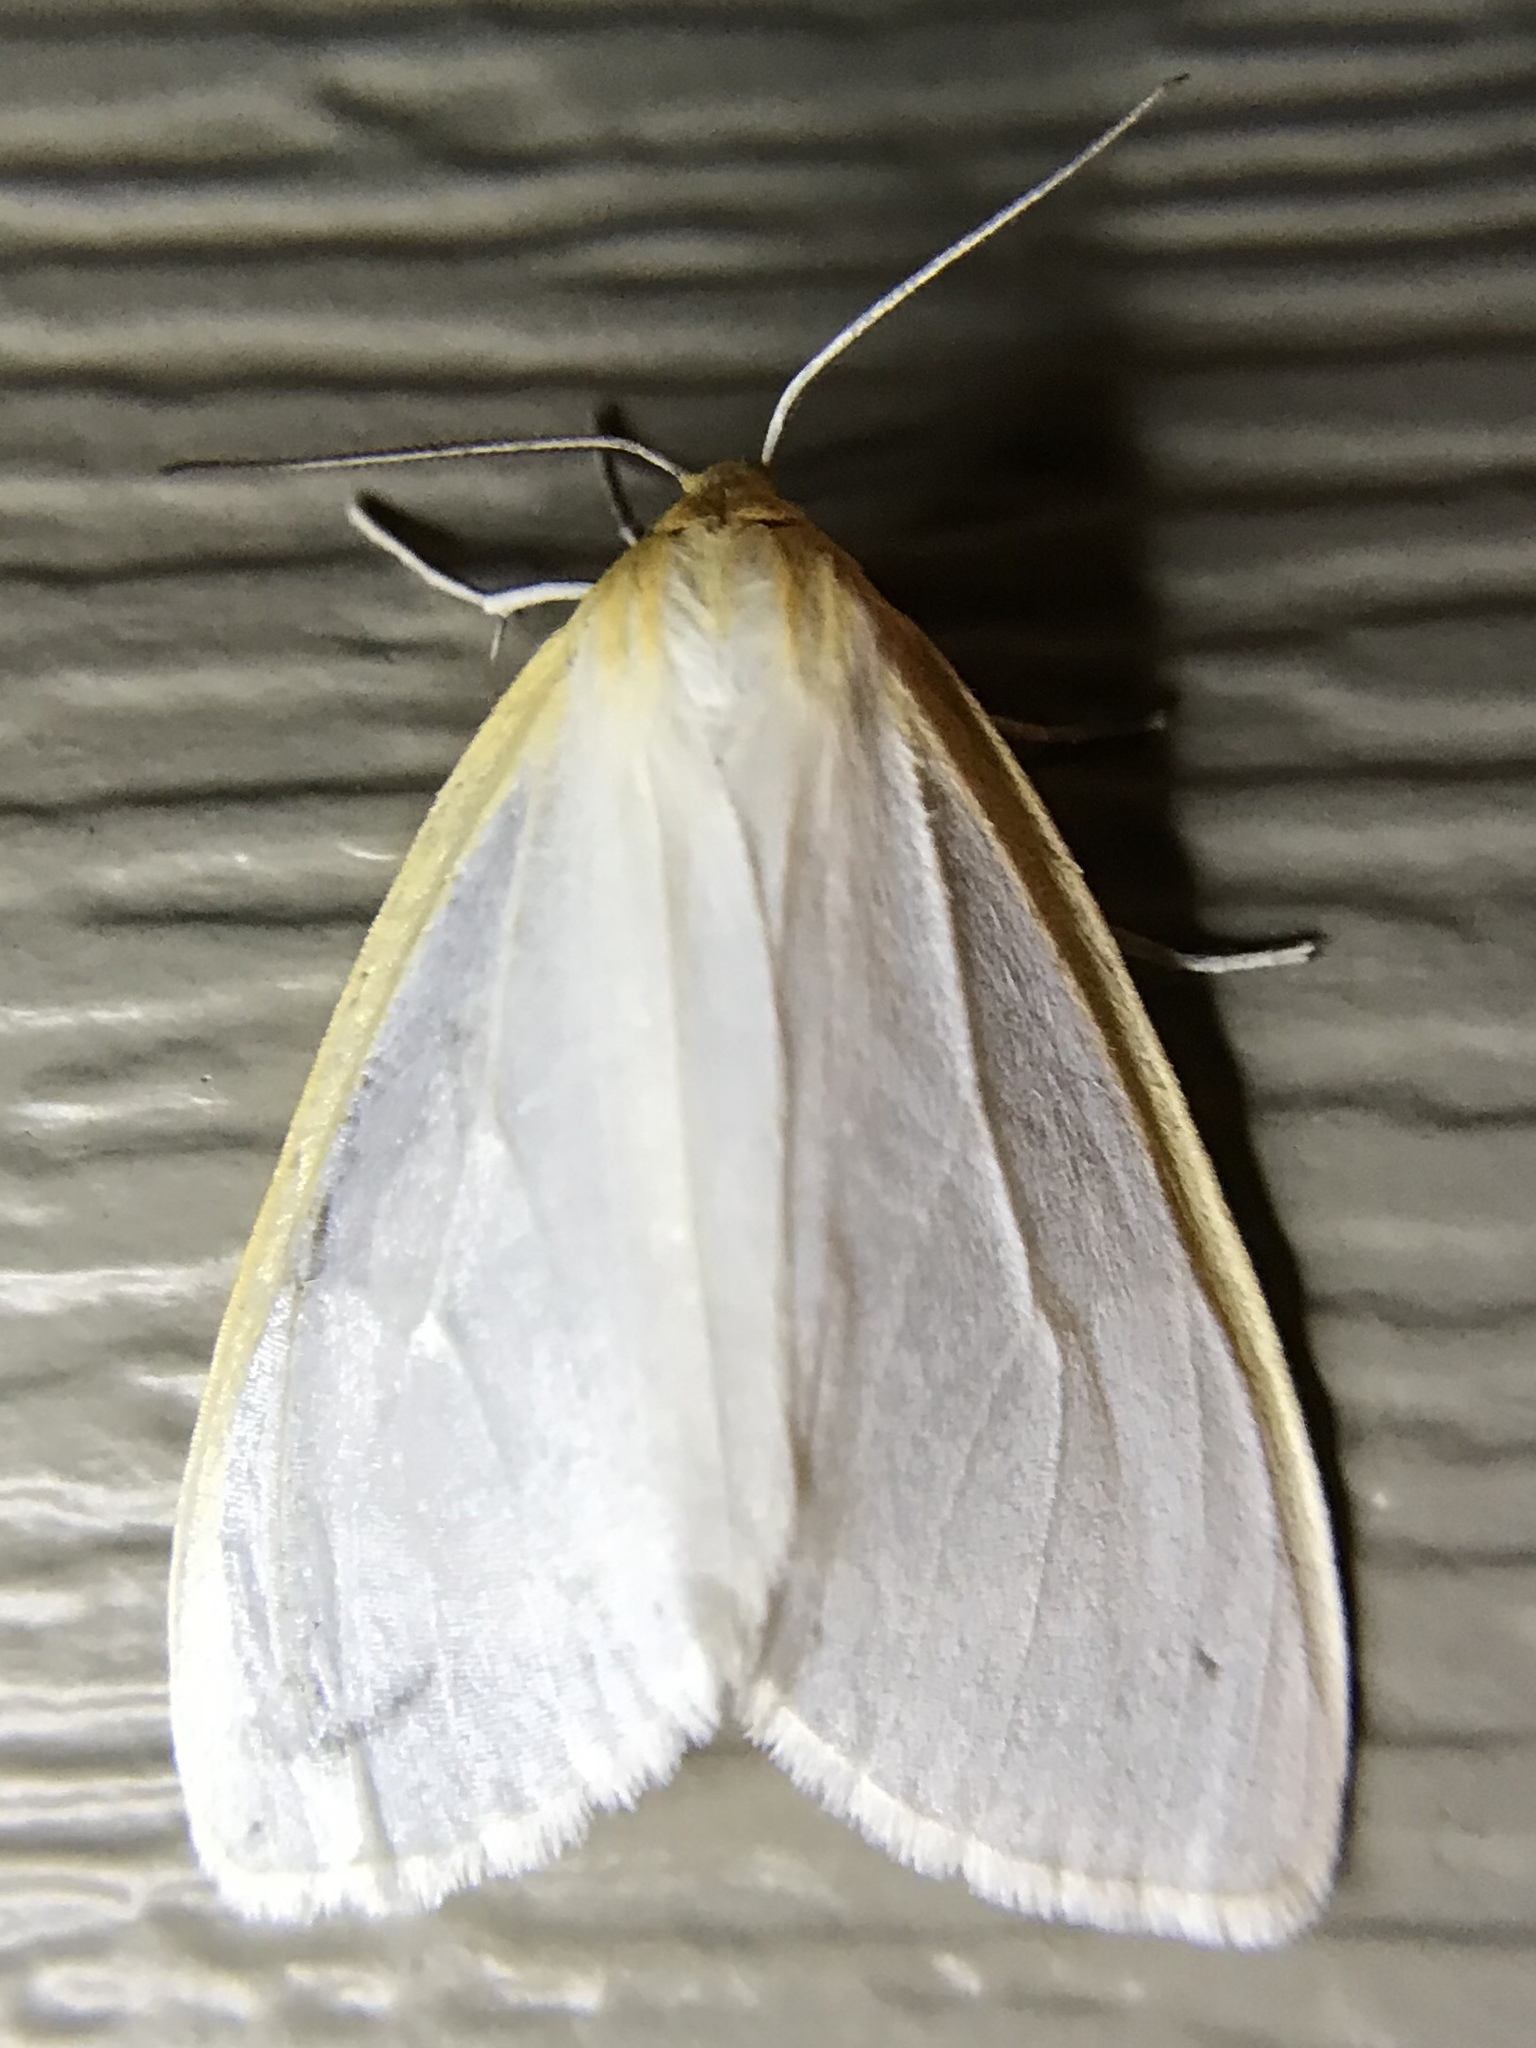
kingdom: Animalia
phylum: Arthropoda
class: Insecta
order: Lepidoptera
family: Erebidae
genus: Cycnia
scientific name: Cycnia tenera
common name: Delicate cycnia moth
